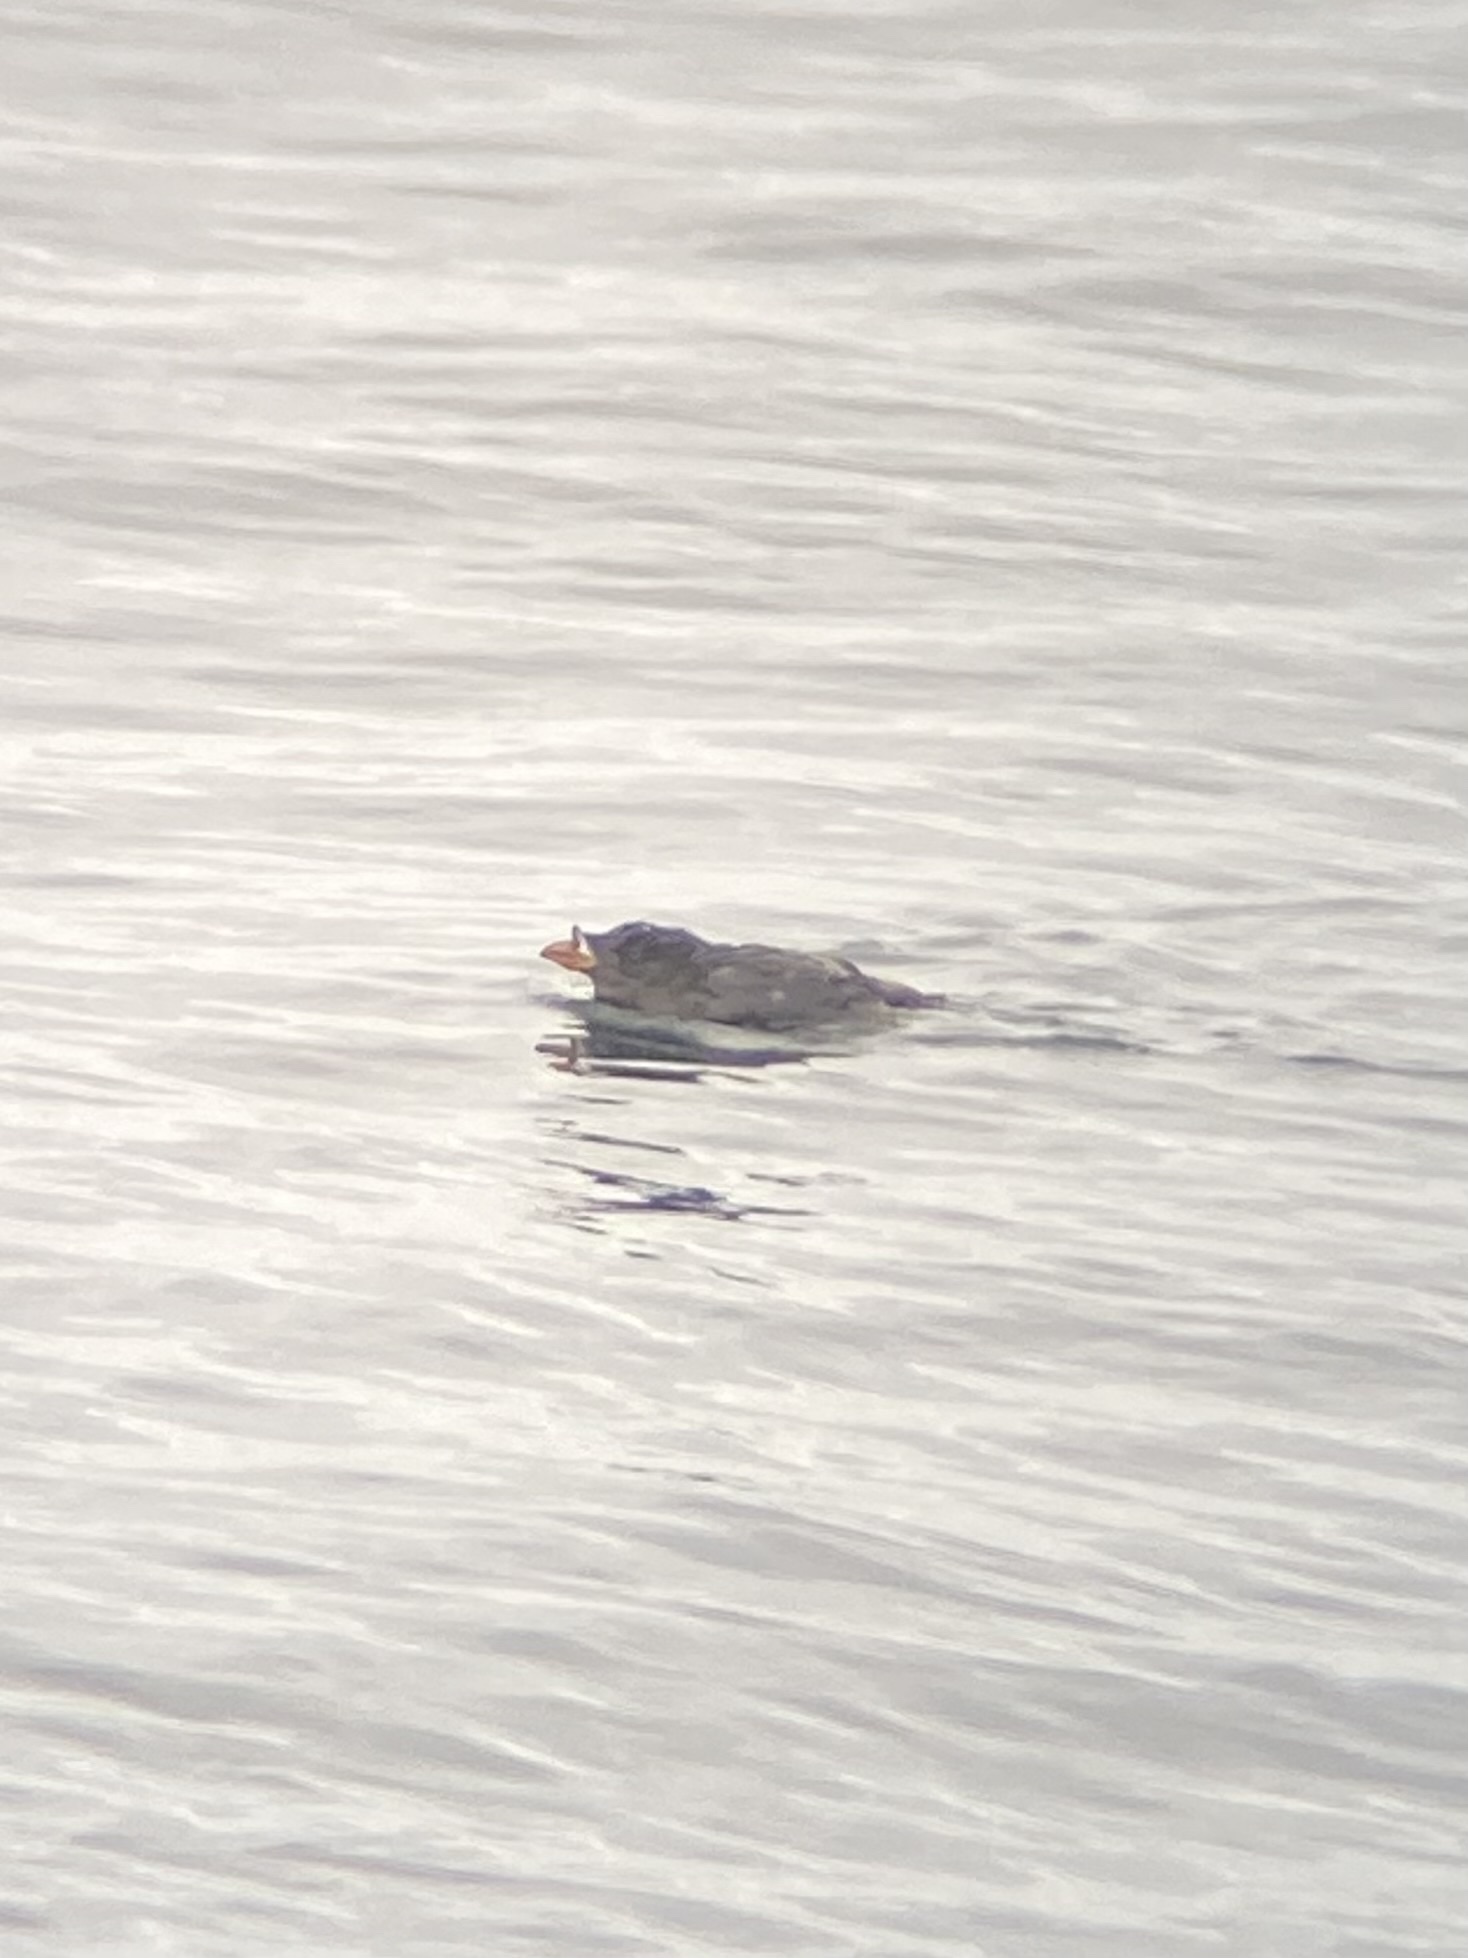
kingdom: Animalia
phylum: Chordata
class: Aves
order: Charadriiformes
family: Alcidae
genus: Cerorhinca
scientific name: Cerorhinca monocerata
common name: Rhinoceros auklet
